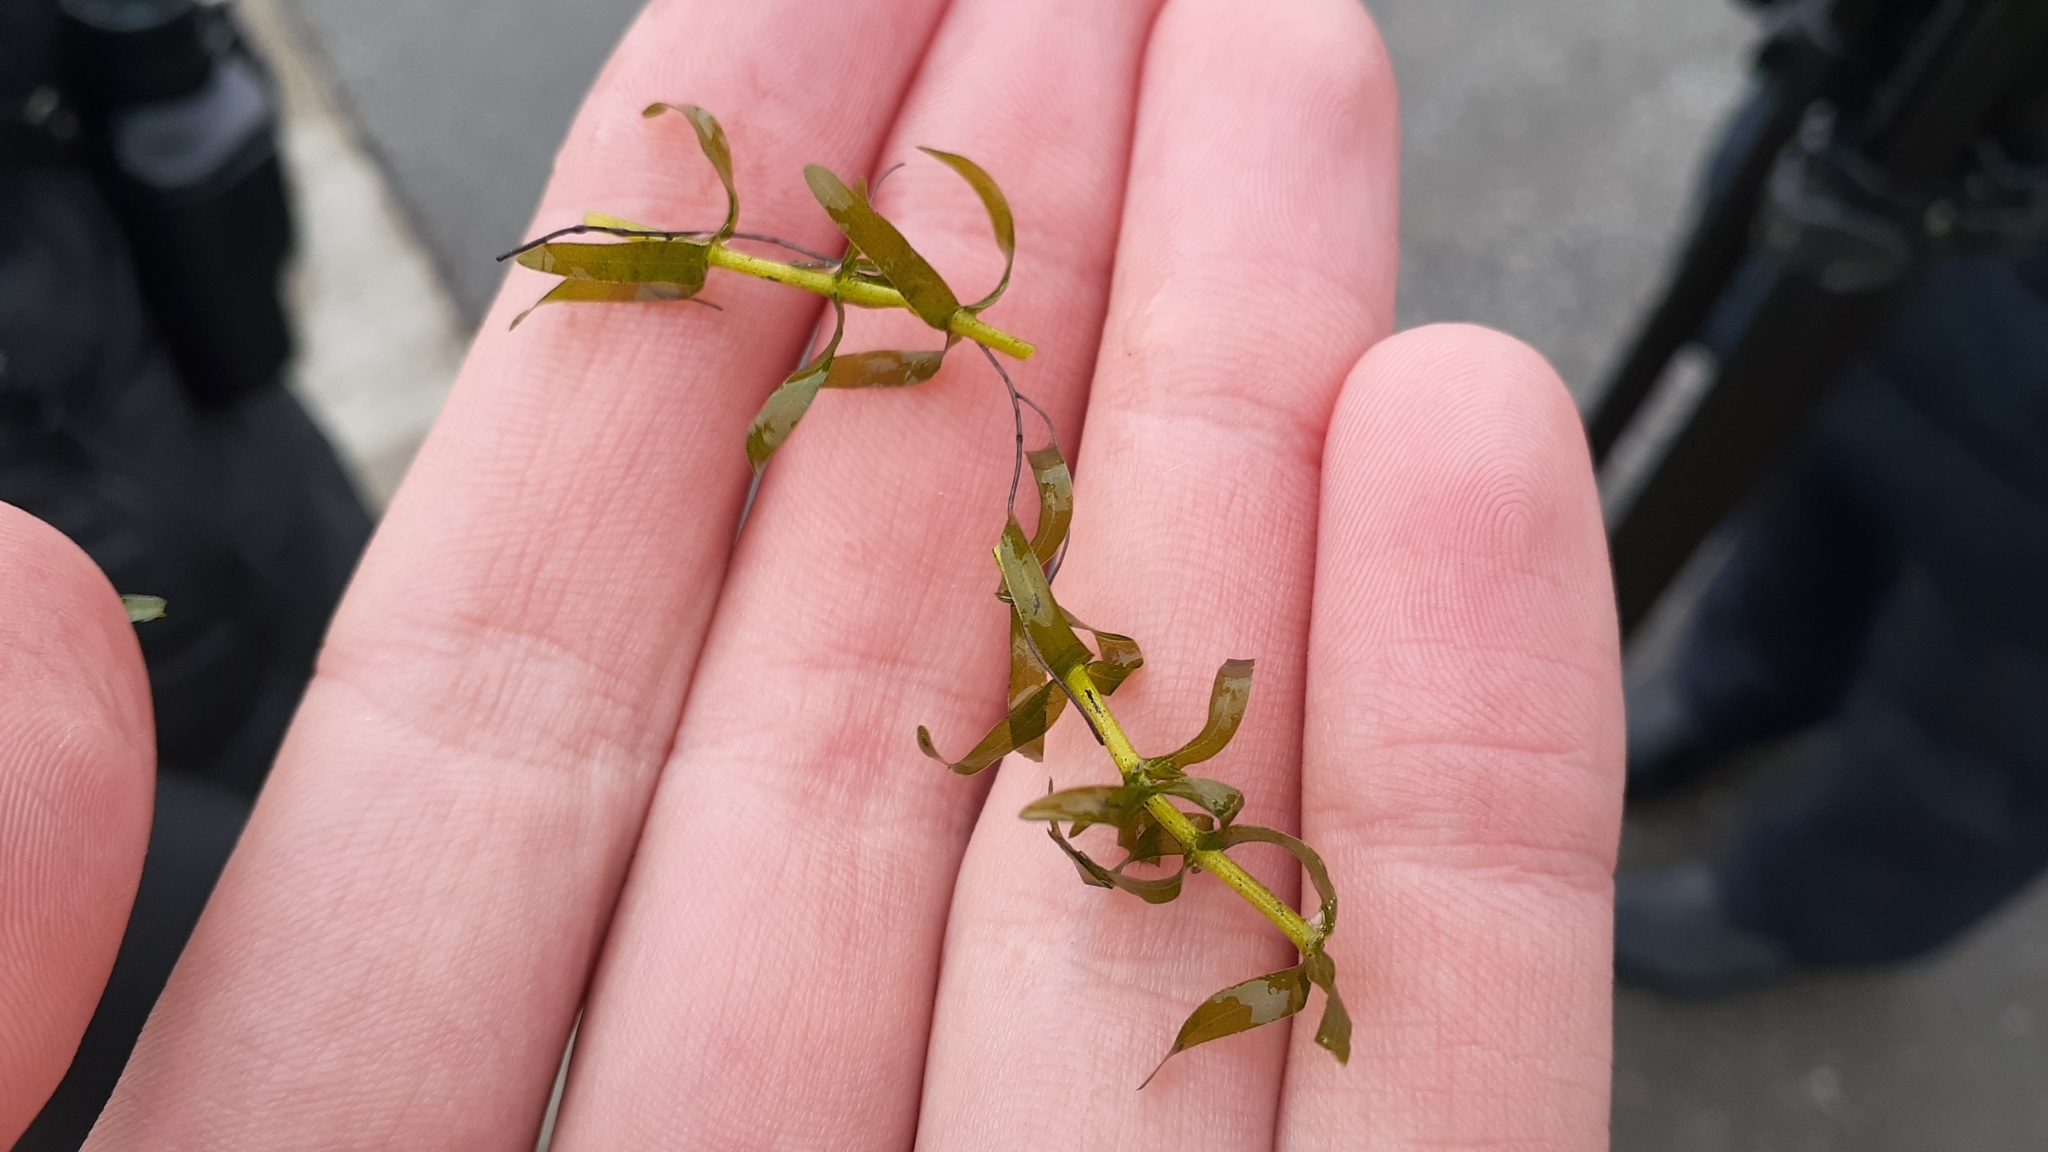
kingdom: Plantae
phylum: Tracheophyta
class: Liliopsida
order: Alismatales
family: Hydrocharitaceae
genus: Elodea
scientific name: Elodea canadensis
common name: Canadian waterweed
